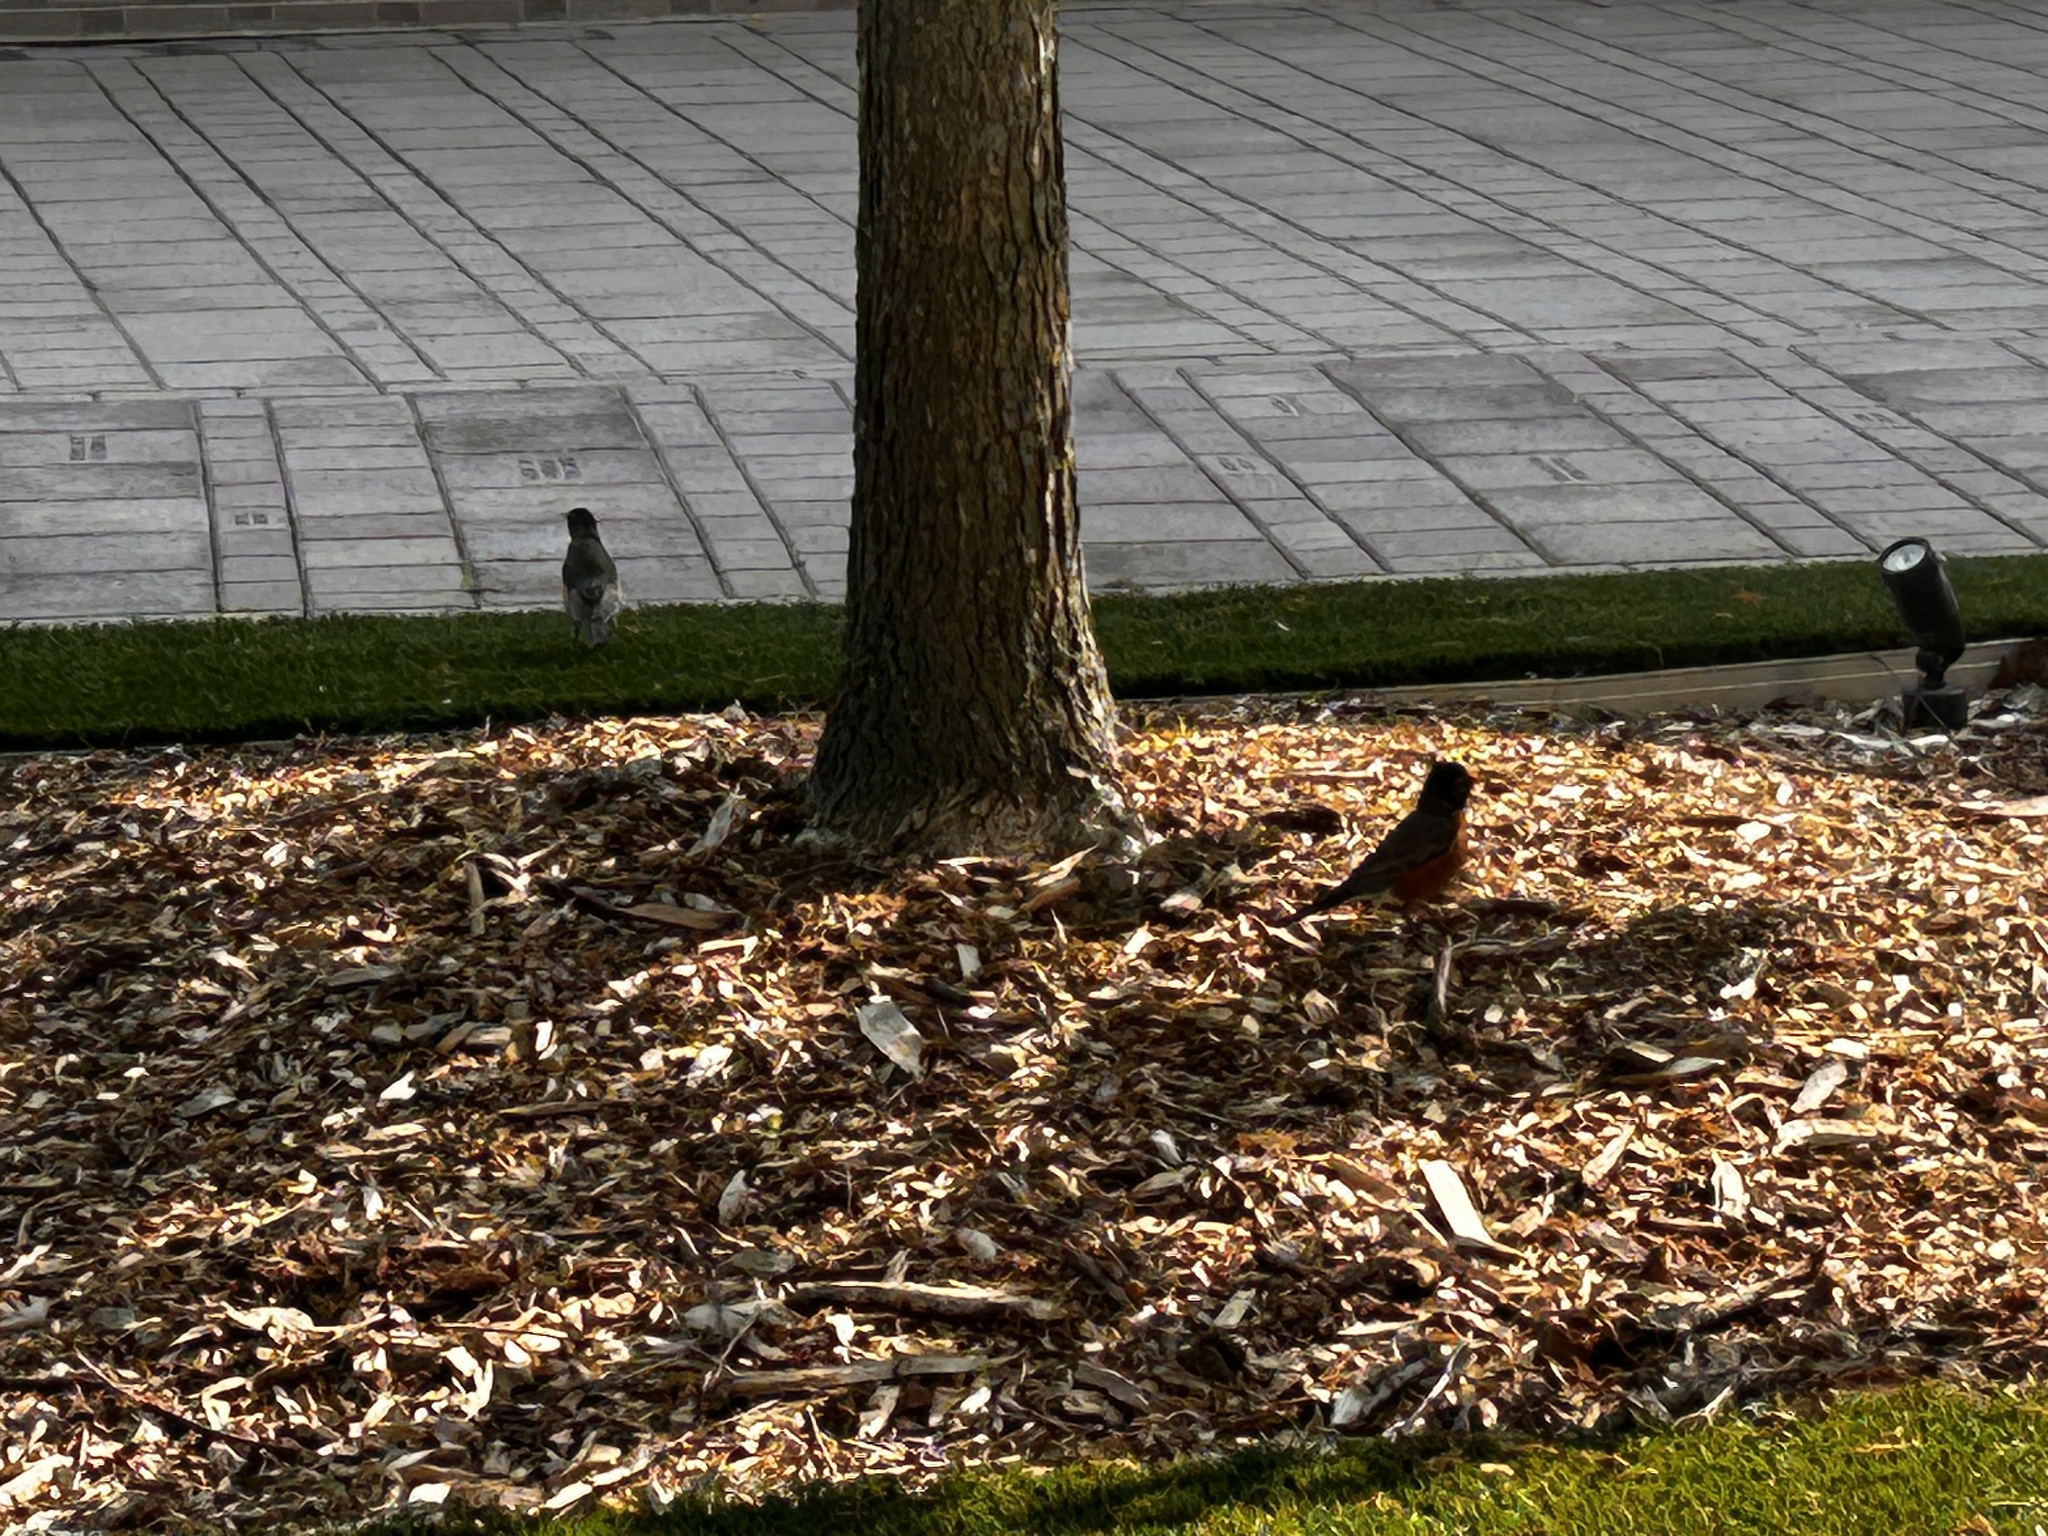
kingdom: Animalia
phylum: Chordata
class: Aves
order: Passeriformes
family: Turdidae
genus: Turdus
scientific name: Turdus migratorius
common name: American robin
